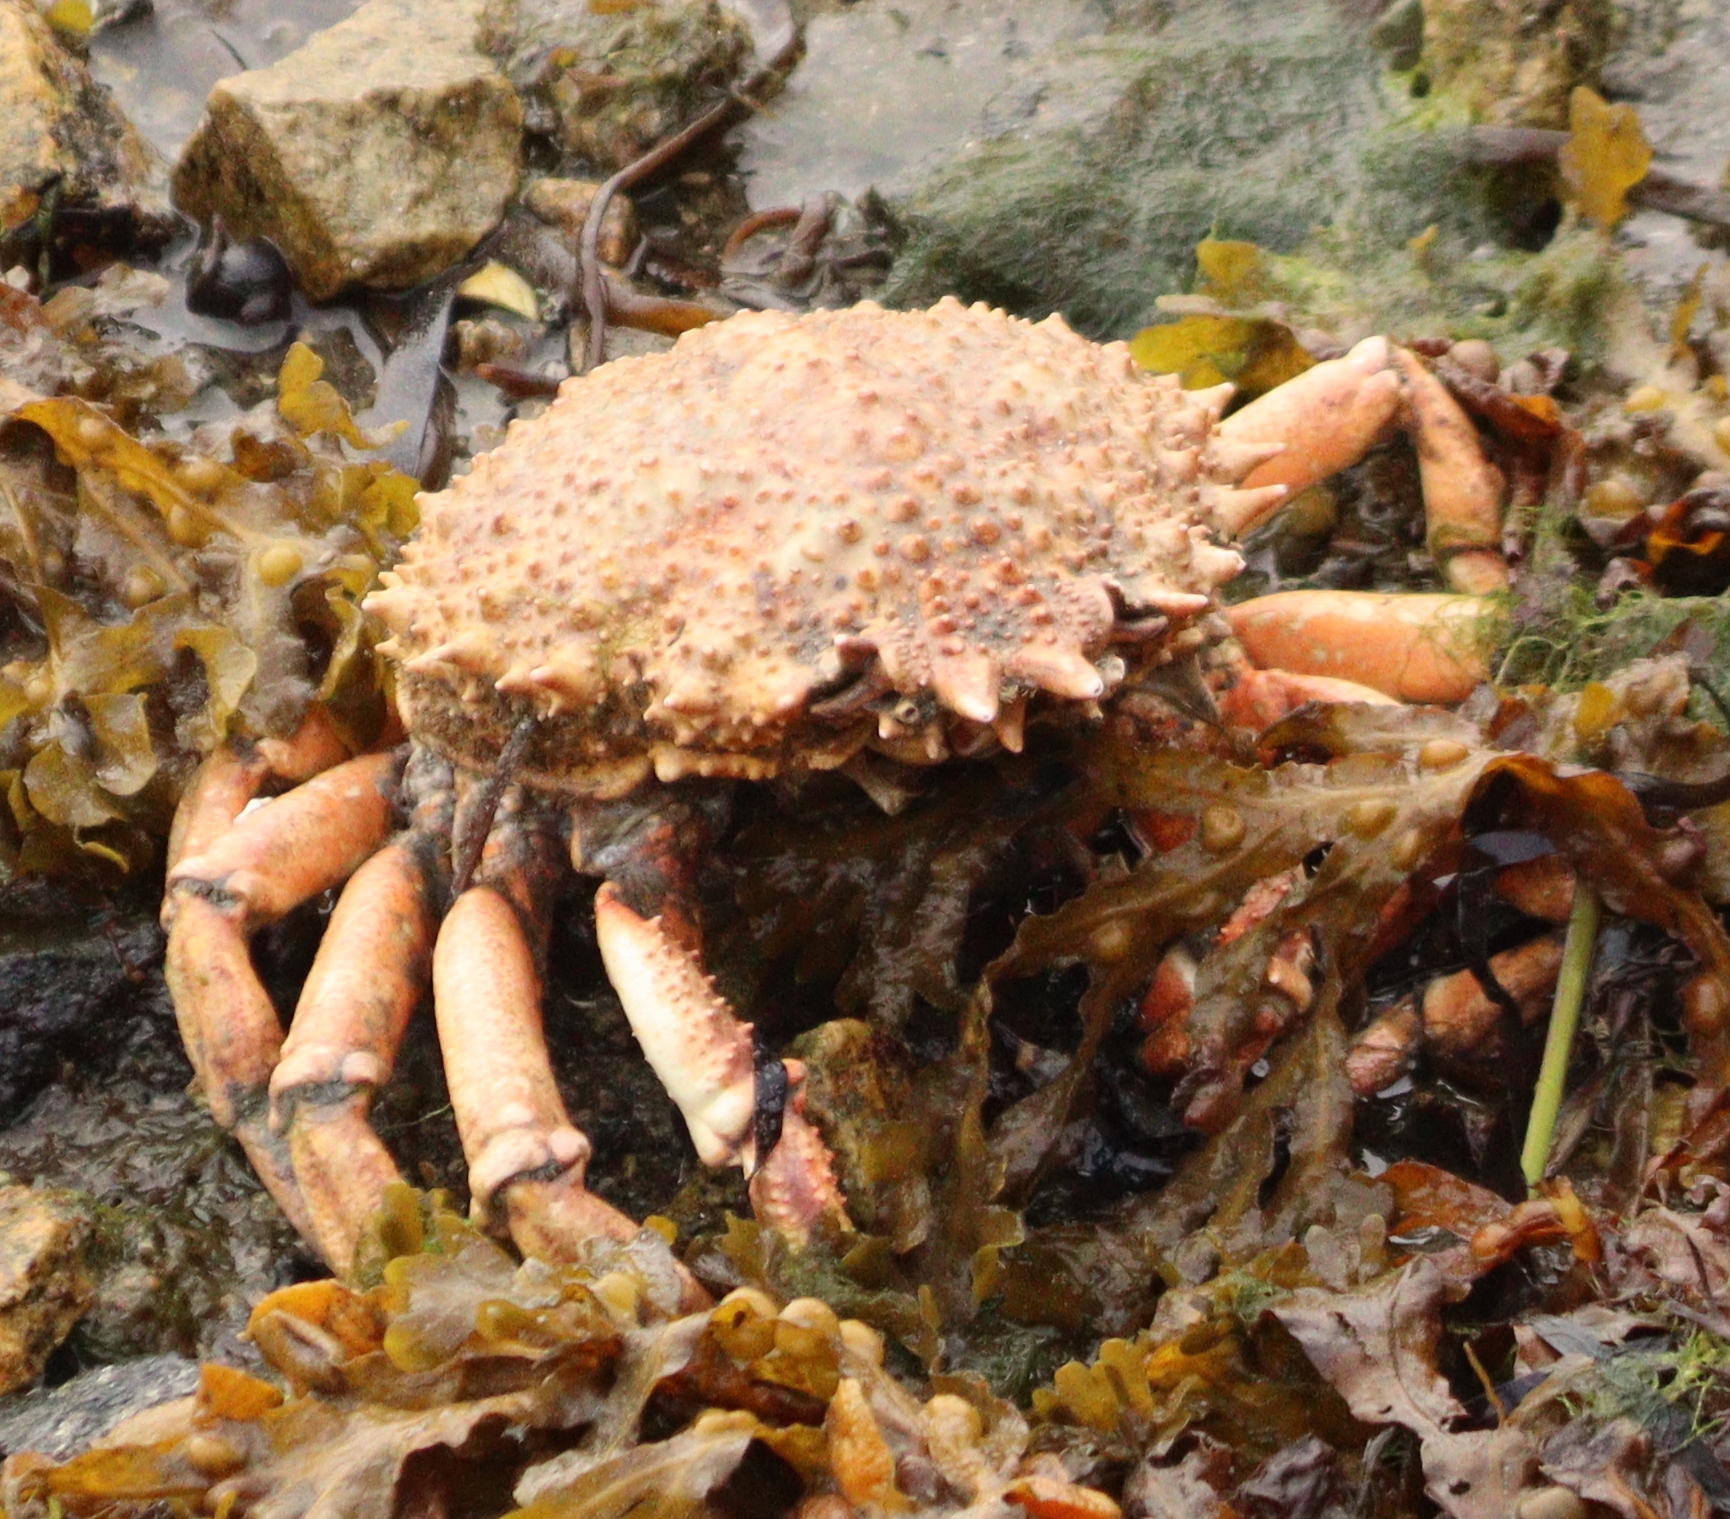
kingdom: Animalia
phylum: Arthropoda
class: Malacostraca
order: Decapoda
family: Majidae
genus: Maja
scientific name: Maja brachydactyla
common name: Common spider crab
